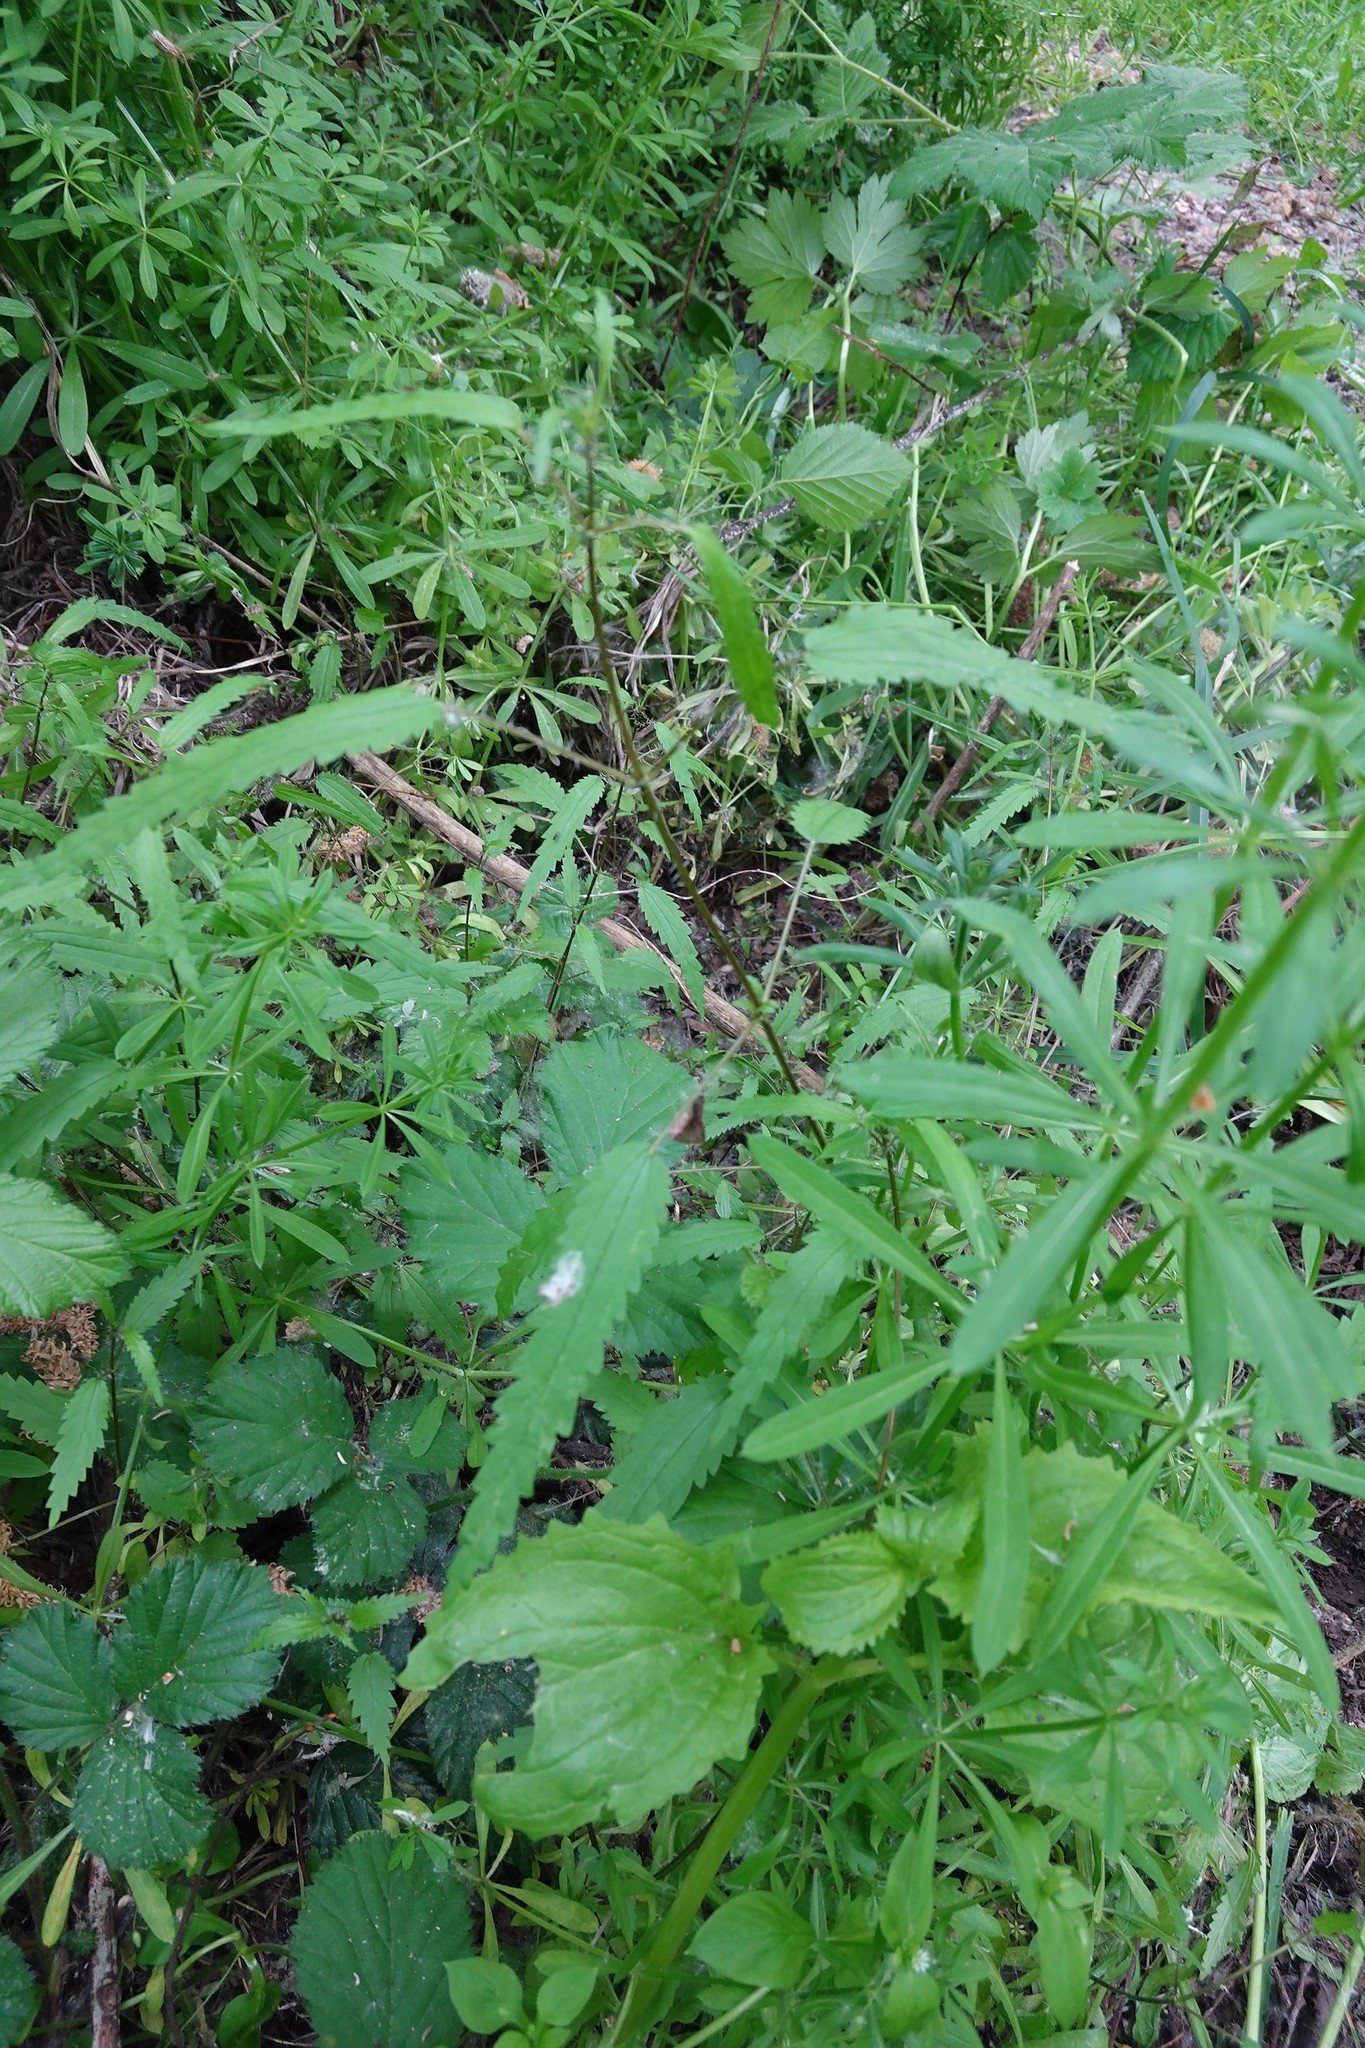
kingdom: Plantae
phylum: Tracheophyta
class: Magnoliopsida
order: Rosales
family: Urticaceae
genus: Urtica
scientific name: Urtica perconfusa
